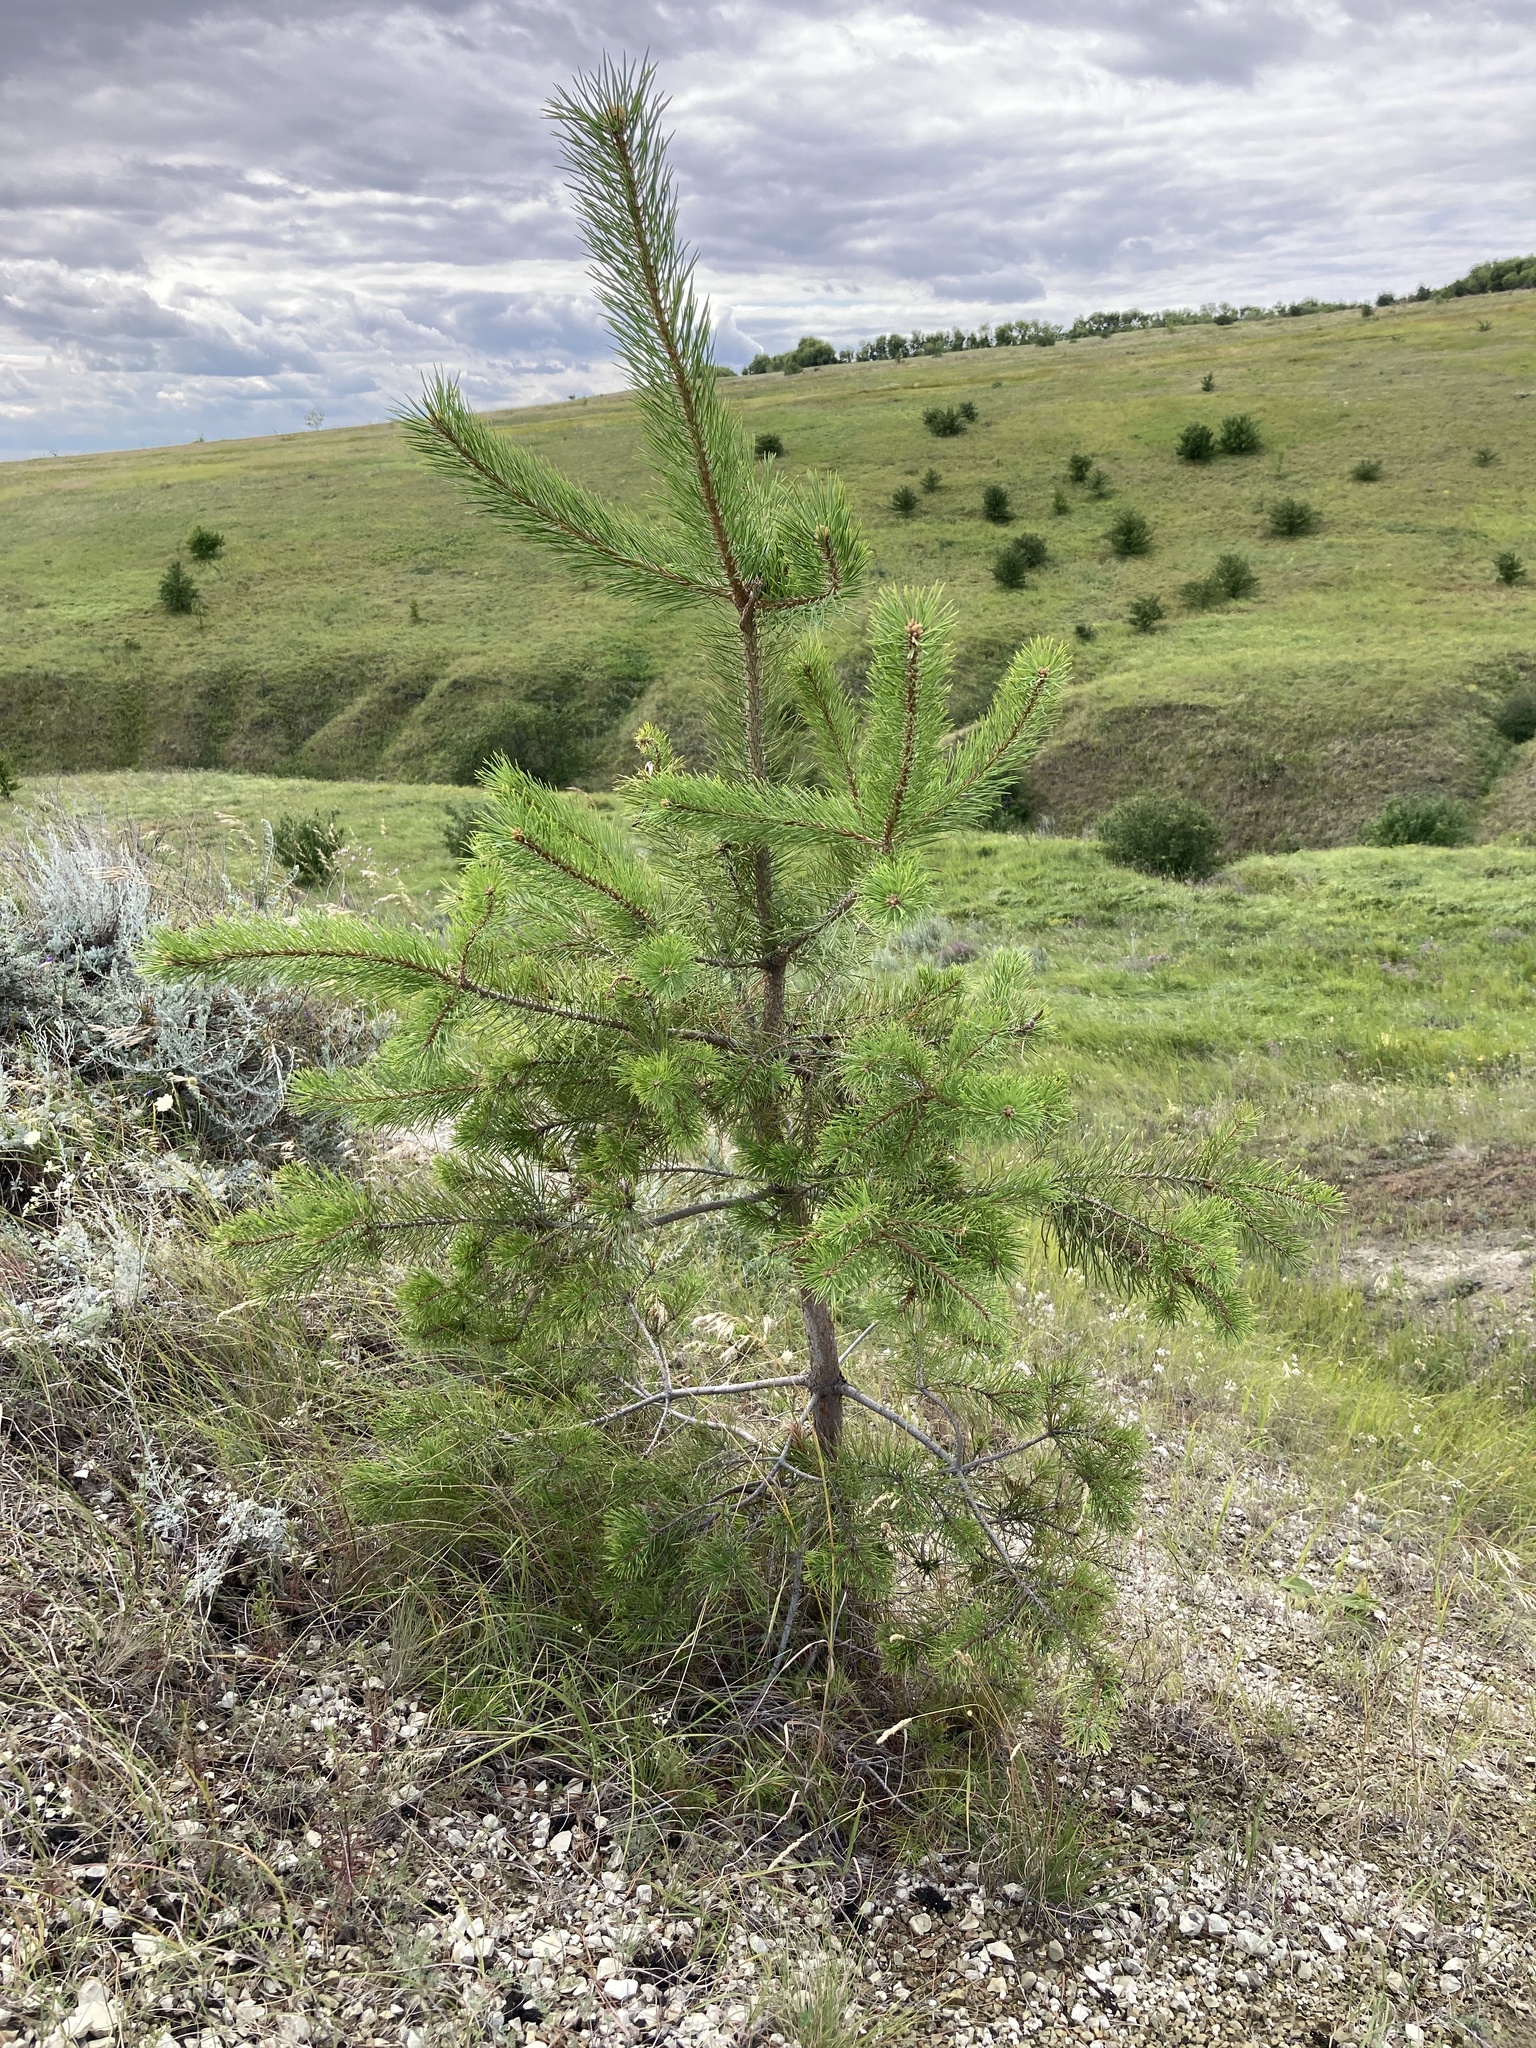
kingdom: Plantae
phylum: Tracheophyta
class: Pinopsida
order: Pinales
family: Pinaceae
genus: Pinus
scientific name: Pinus sylvestris
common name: Scots pine
